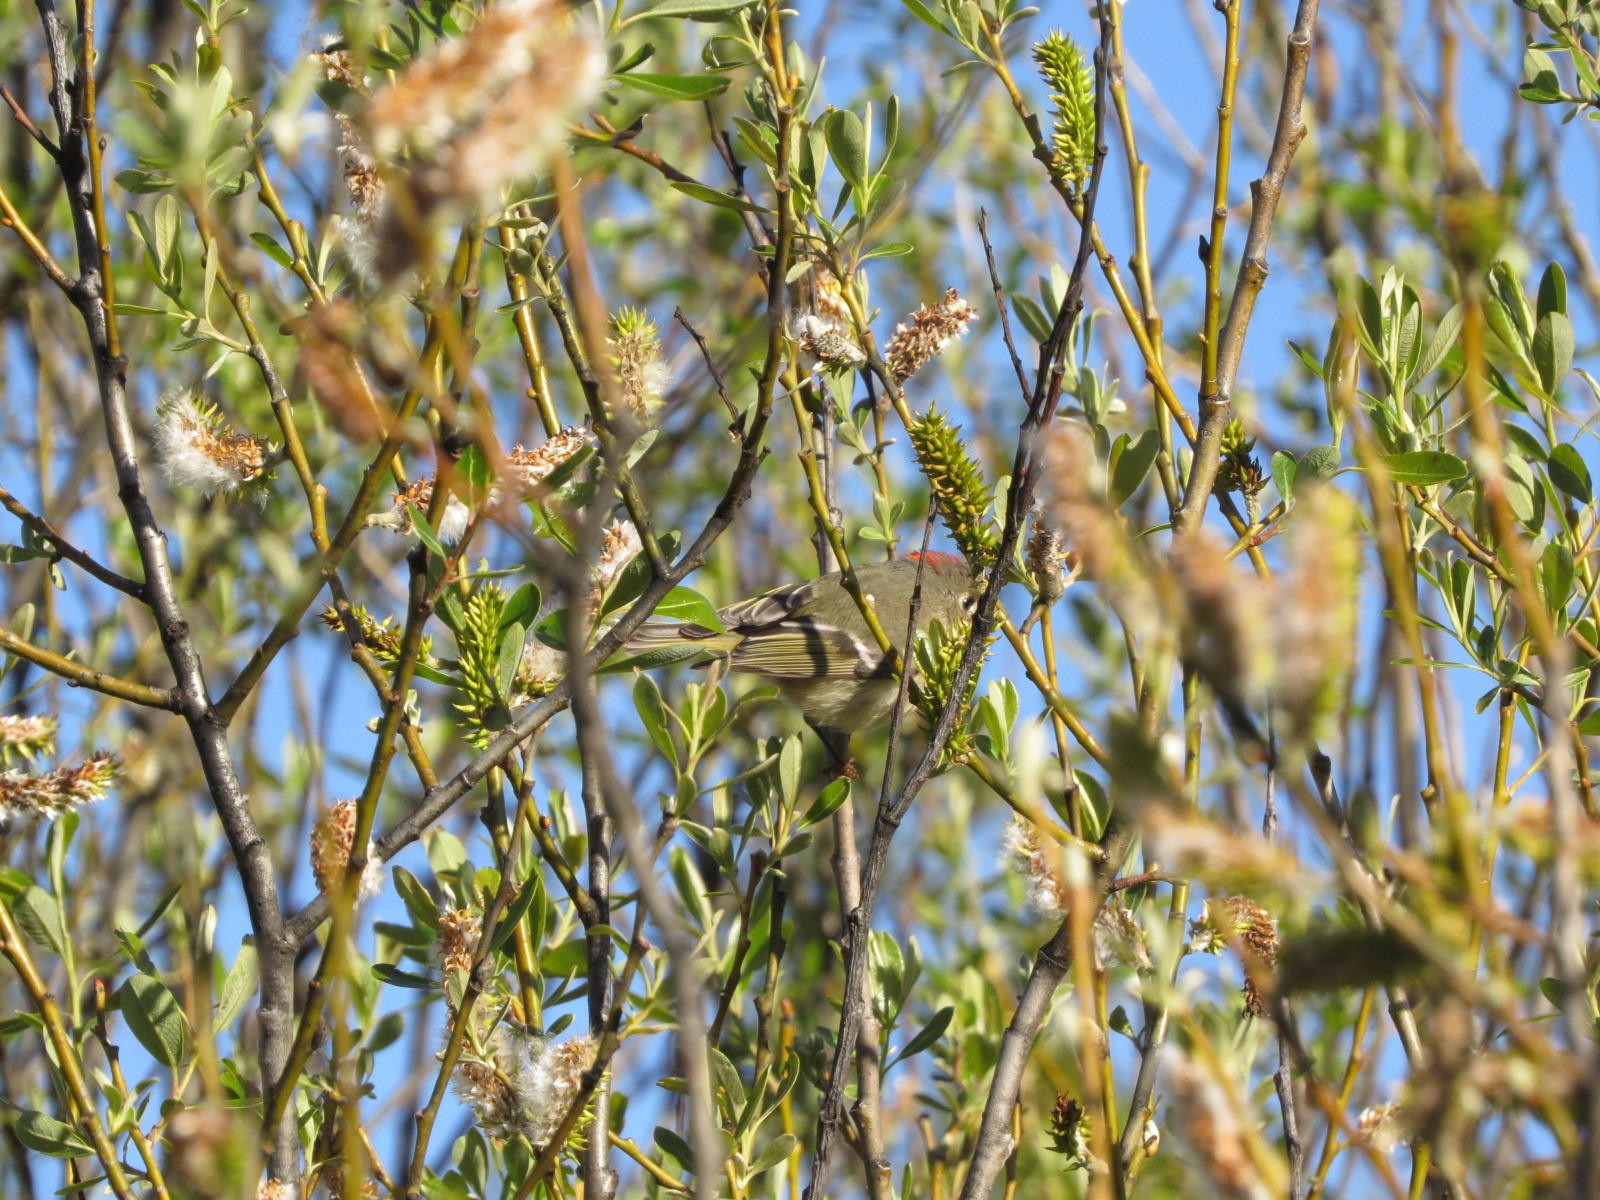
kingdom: Animalia
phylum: Chordata
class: Aves
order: Passeriformes
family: Regulidae
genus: Regulus
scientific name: Regulus calendula
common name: Ruby-crowned kinglet
